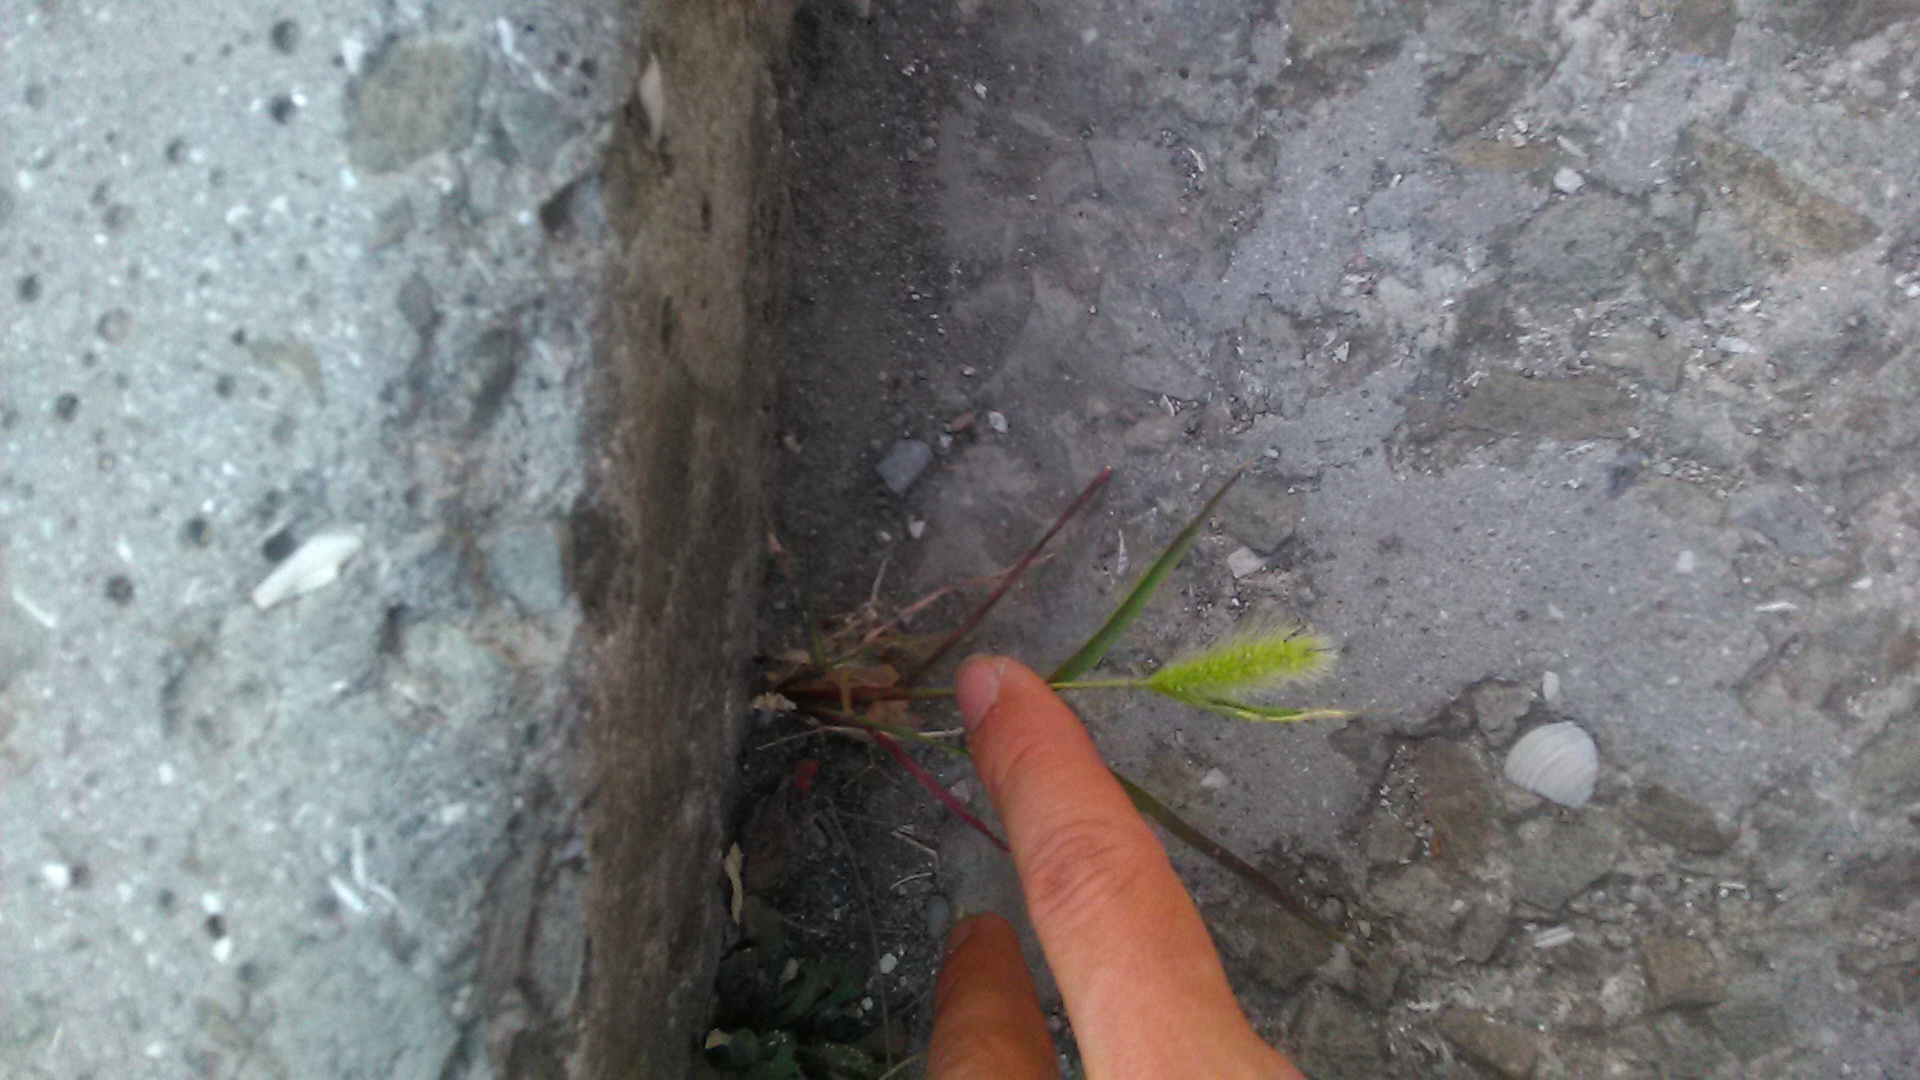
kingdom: Plantae
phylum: Tracheophyta
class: Liliopsida
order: Poales
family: Poaceae
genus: Setaria
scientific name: Setaria viridis
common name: Green bristlegrass
